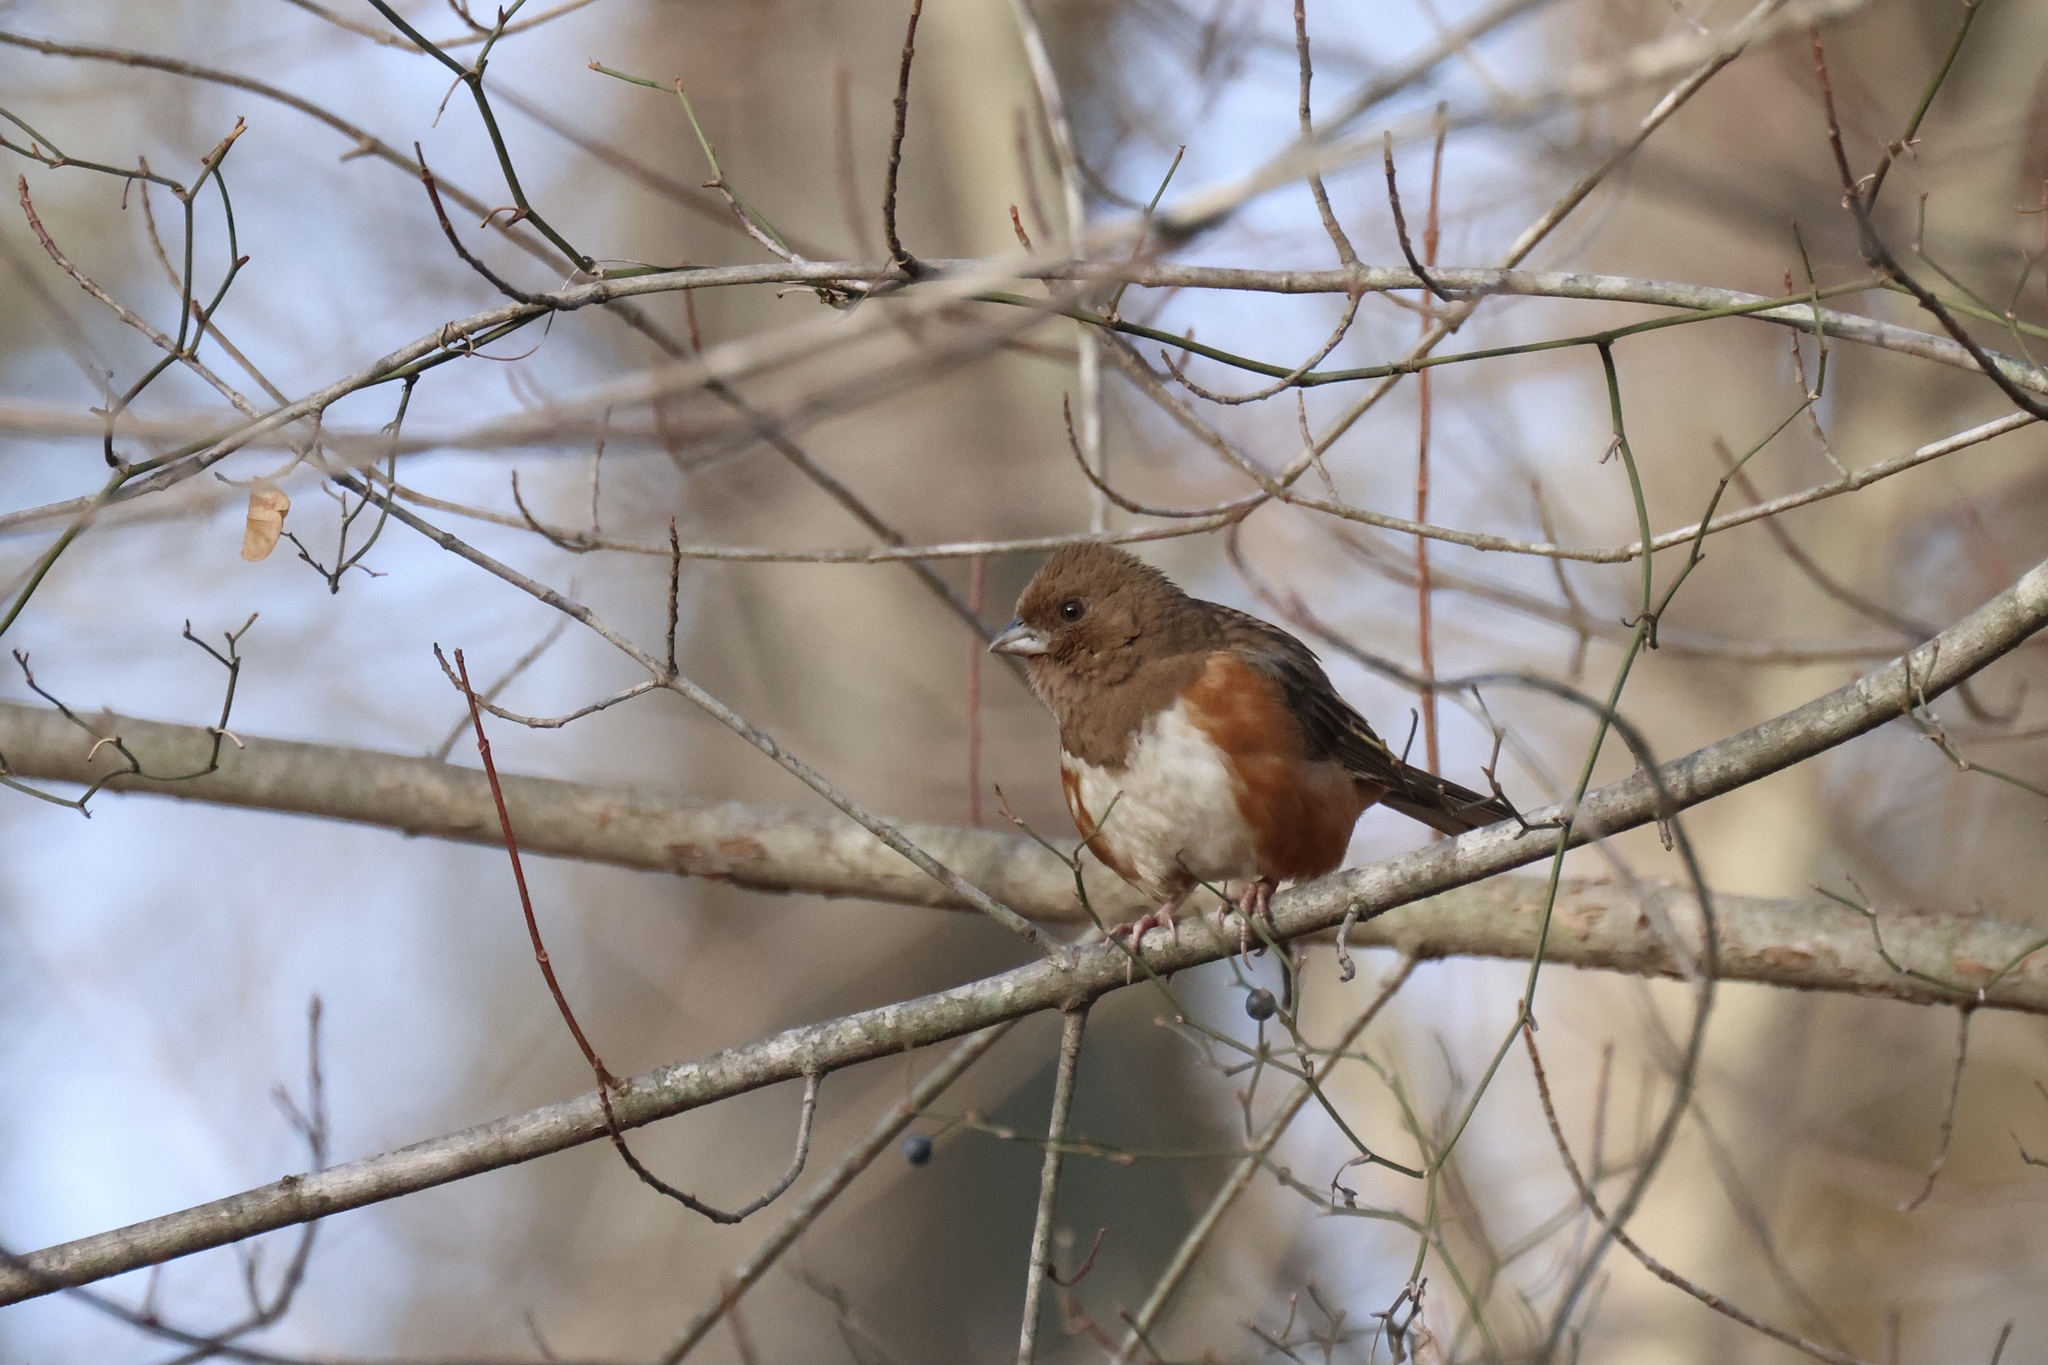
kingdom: Animalia
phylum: Chordata
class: Aves
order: Passeriformes
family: Passerellidae
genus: Pipilo
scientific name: Pipilo erythrophthalmus
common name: Eastern towhee
